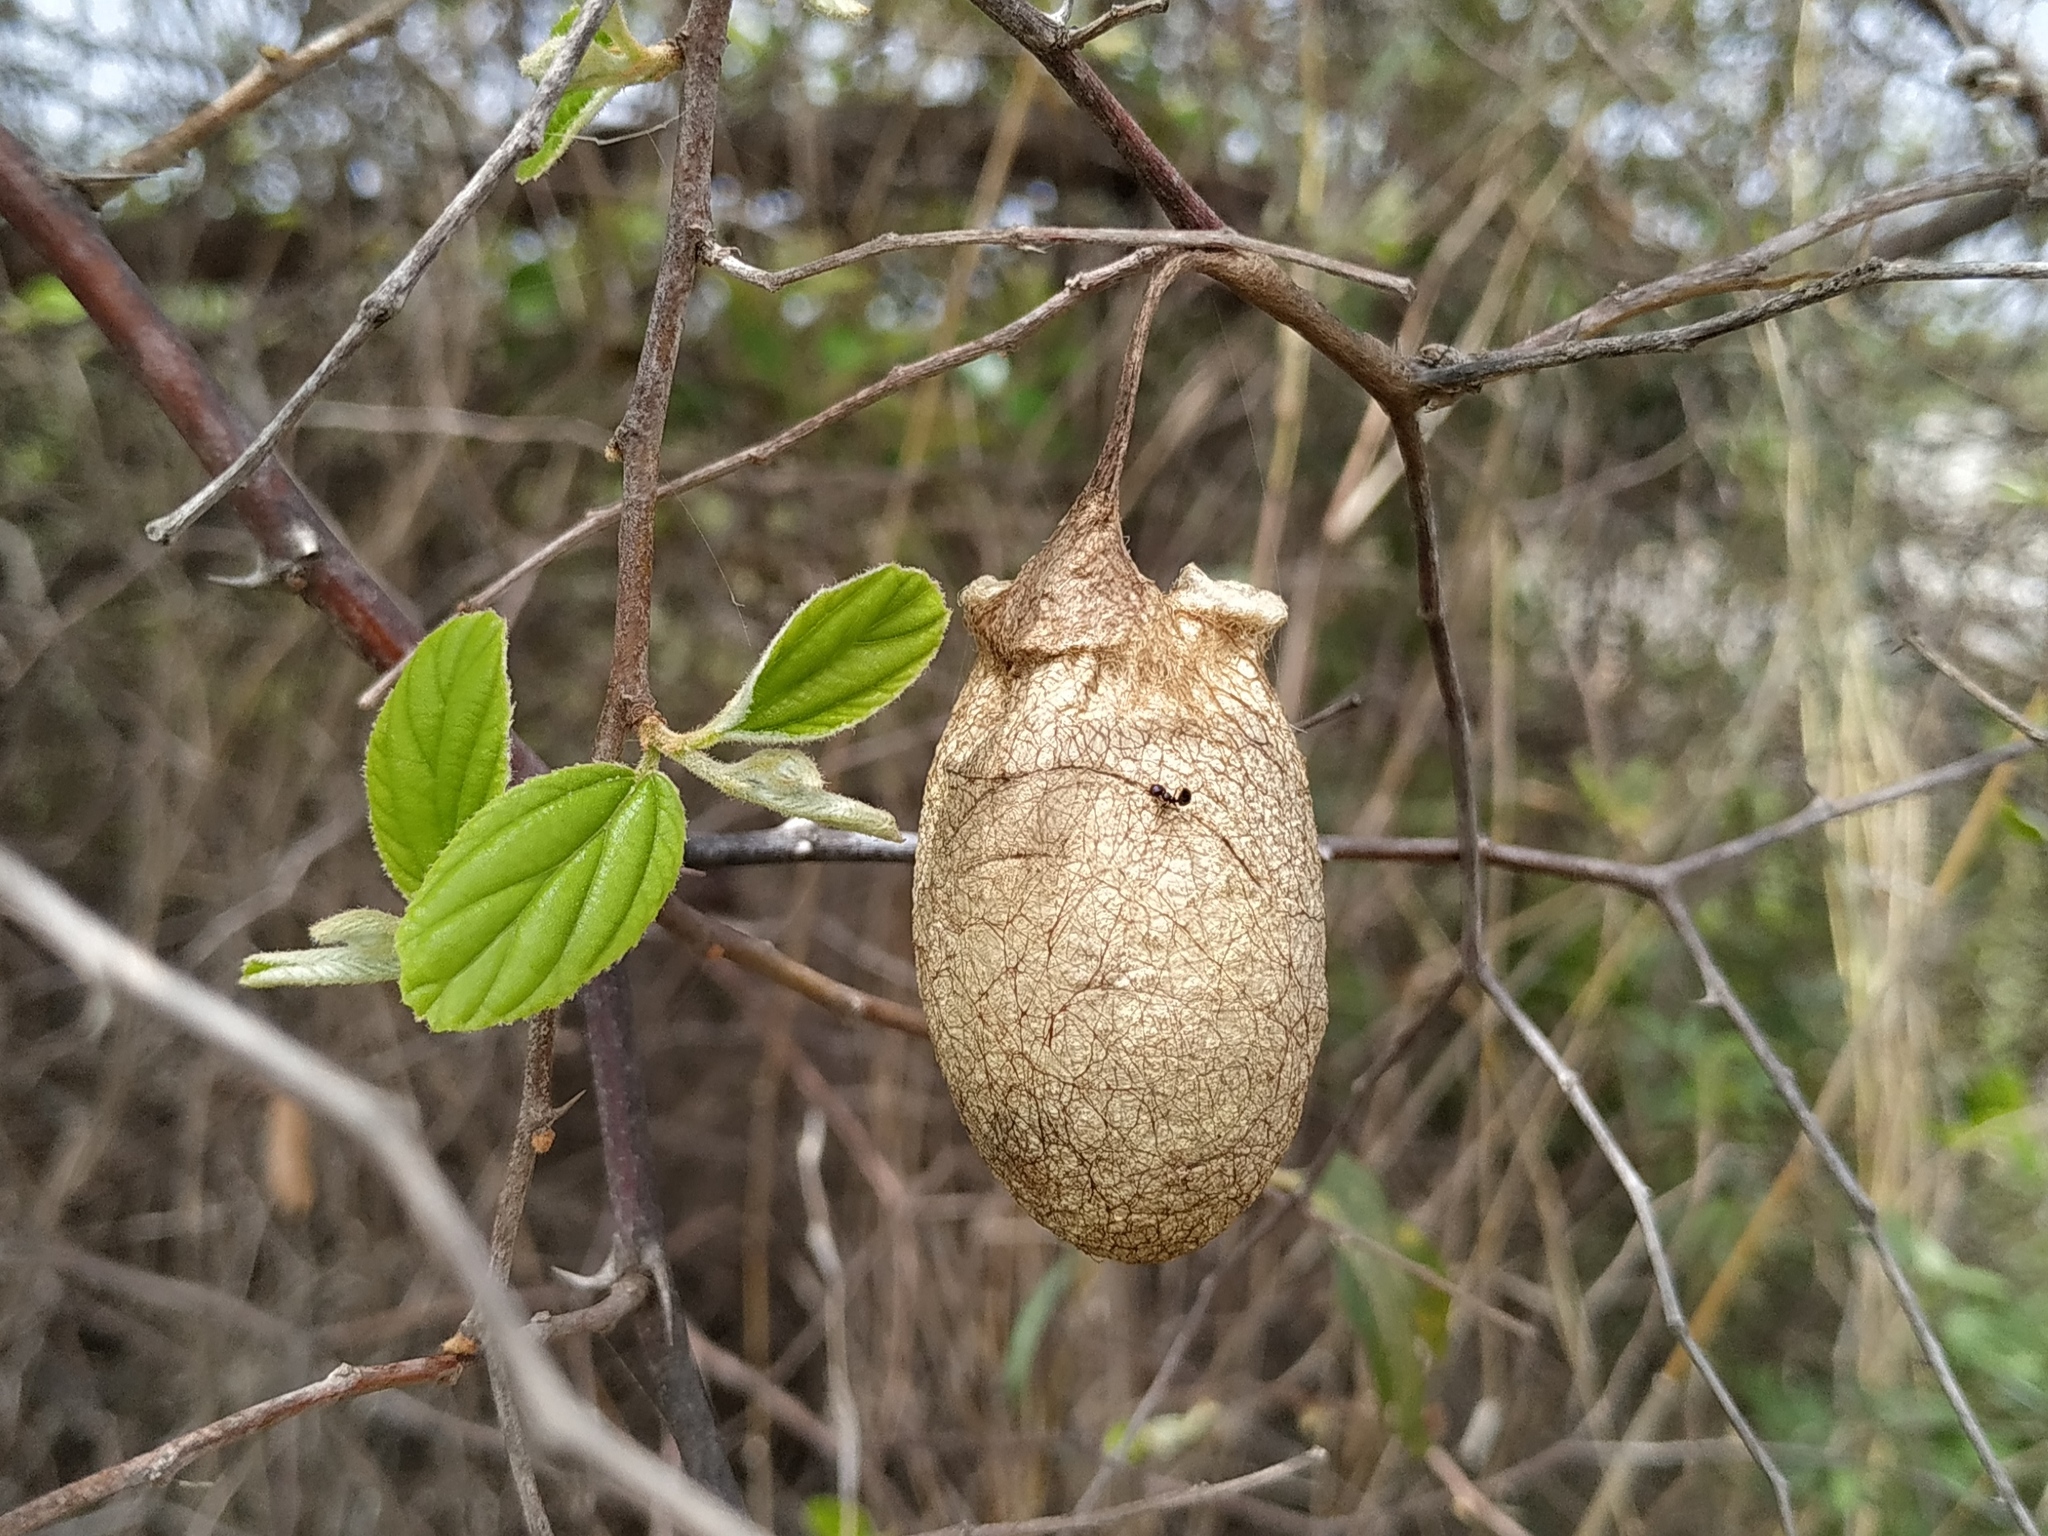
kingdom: Animalia
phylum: Arthropoda
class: Insecta
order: Lepidoptera
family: Saturniidae
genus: Antheraea
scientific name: Antheraea paphia
